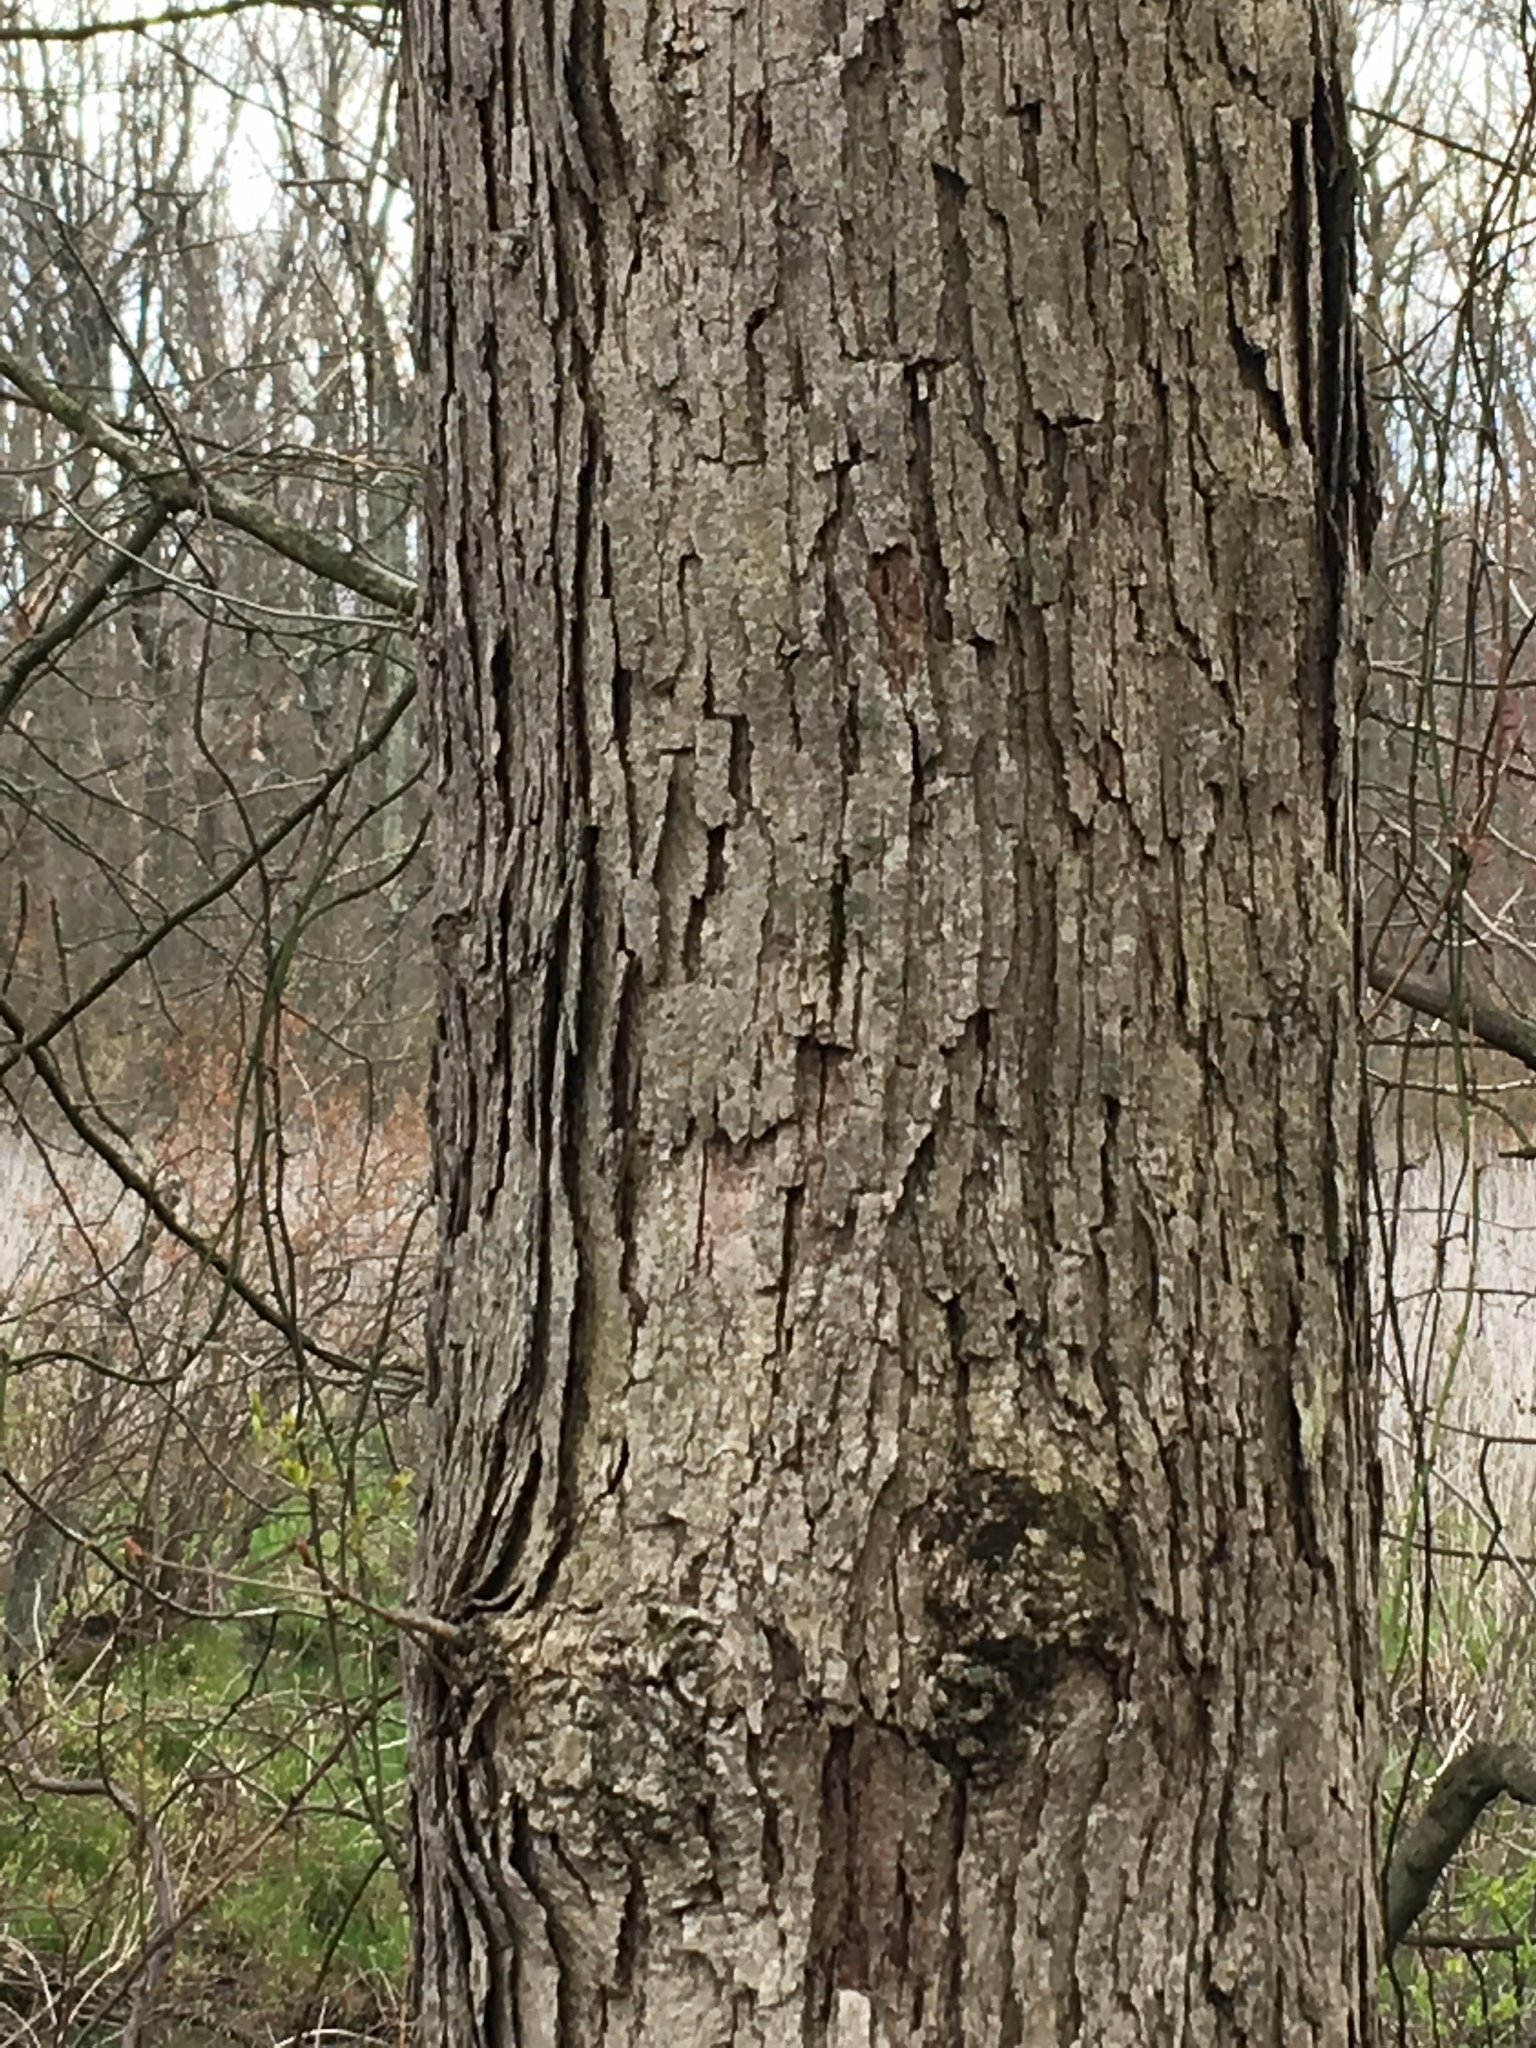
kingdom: Plantae
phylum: Tracheophyta
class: Magnoliopsida
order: Fagales
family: Fagaceae
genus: Quercus
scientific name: Quercus alba
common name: White oak
